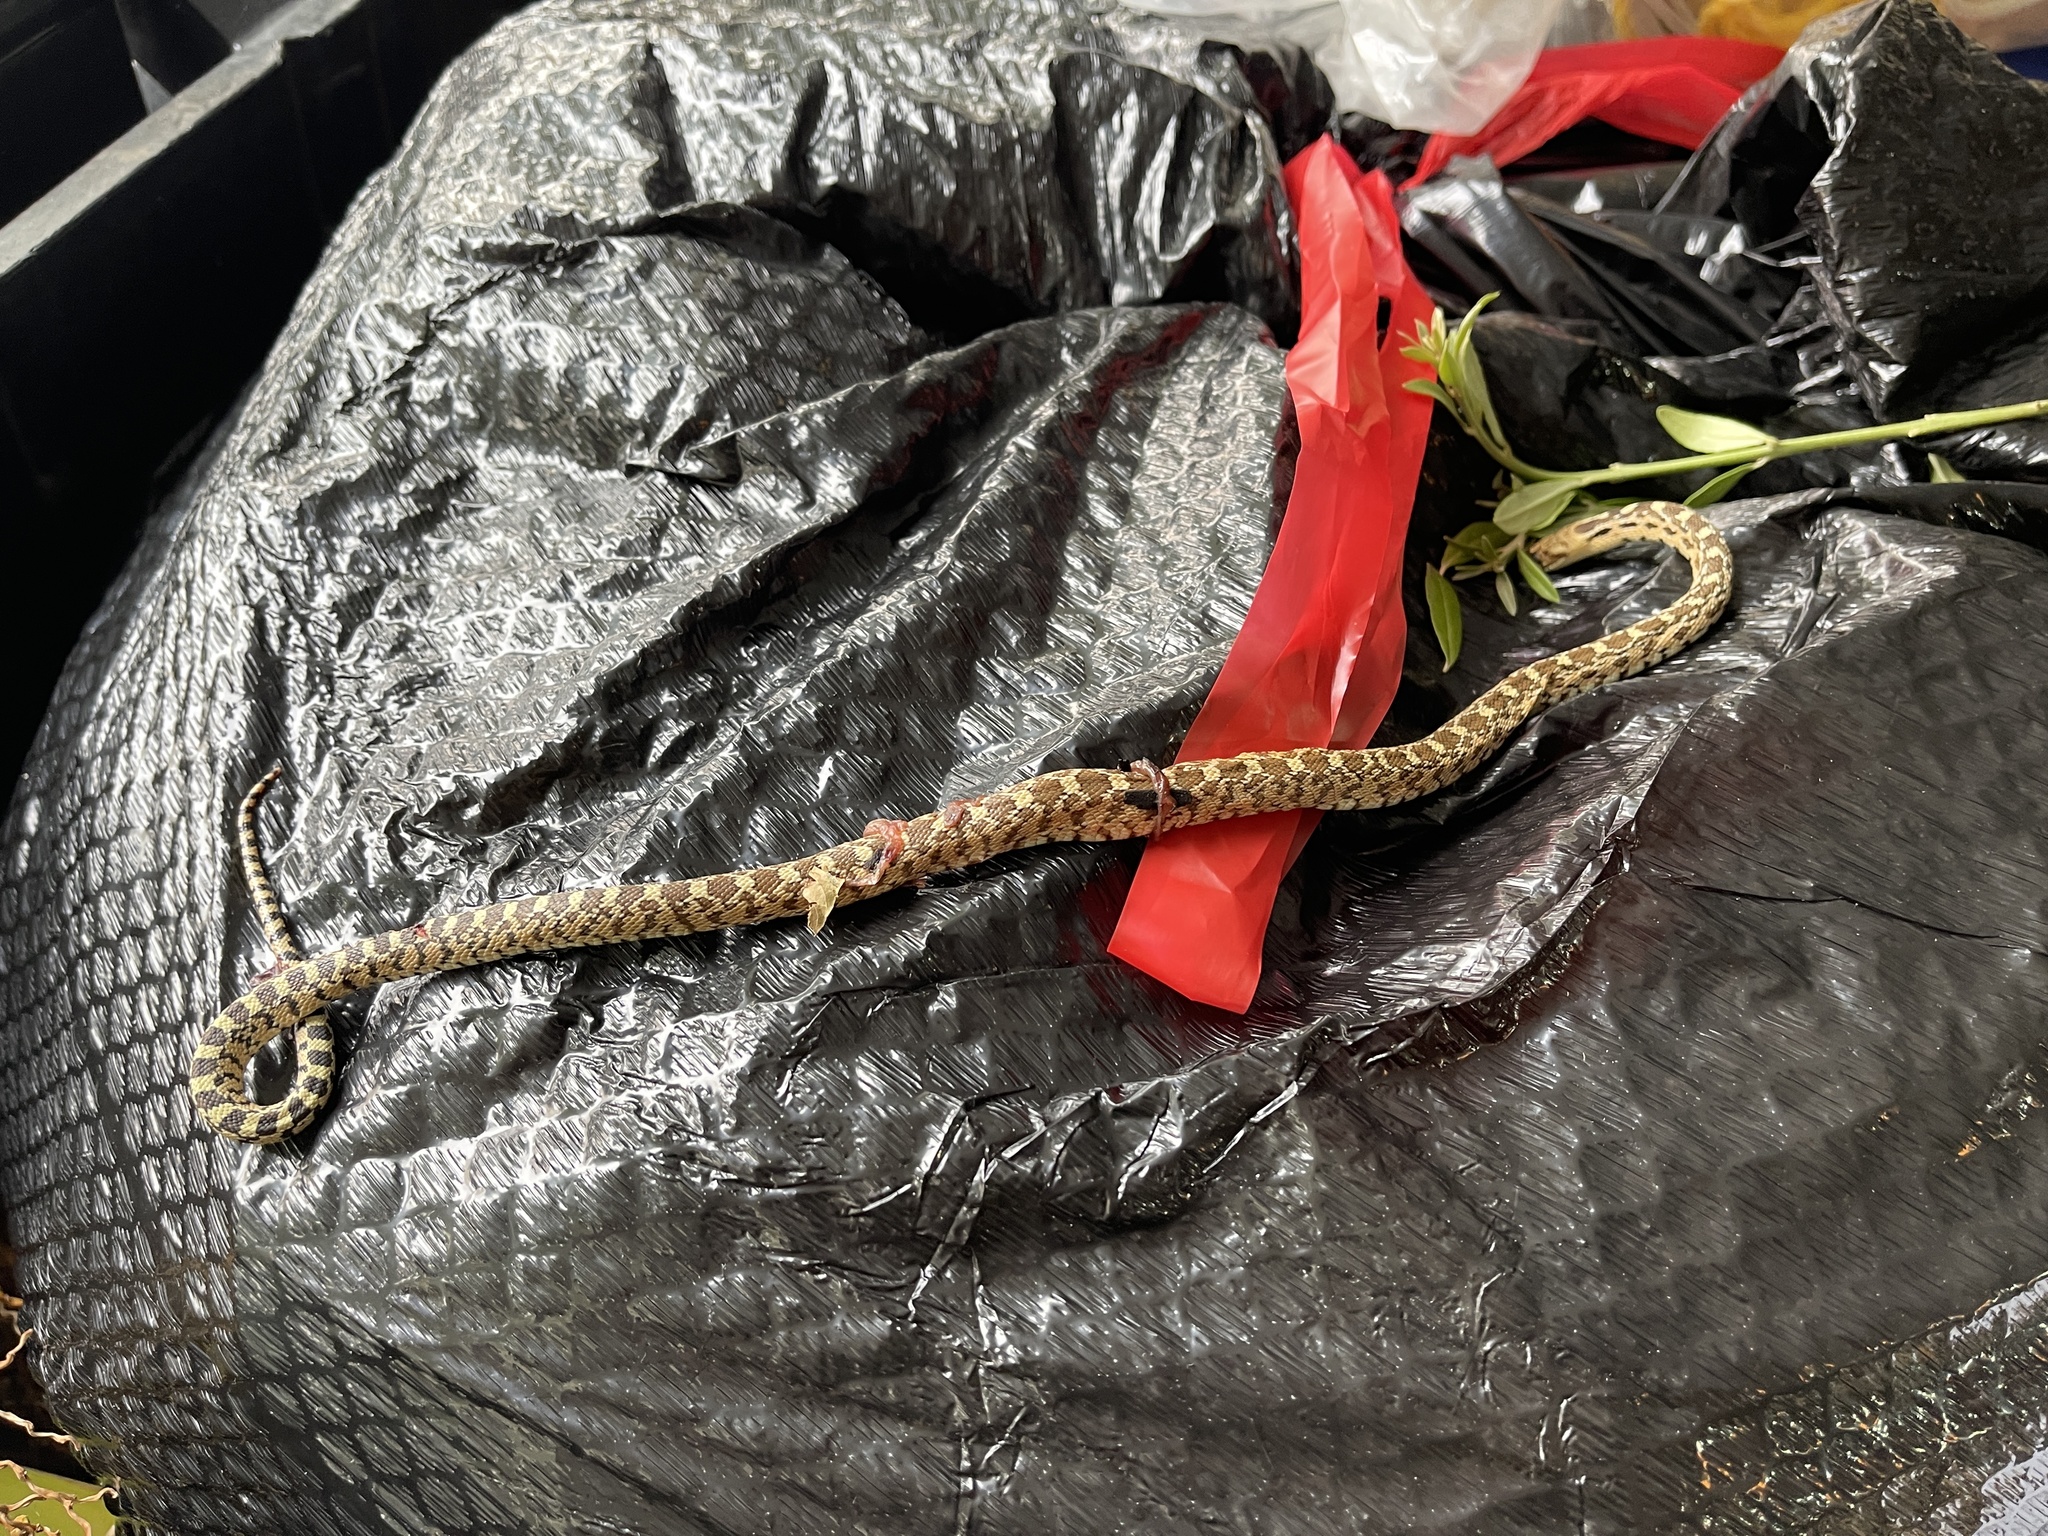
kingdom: Animalia
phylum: Chordata
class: Squamata
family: Colubridae
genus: Pituophis
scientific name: Pituophis catenifer
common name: Gopher snake
